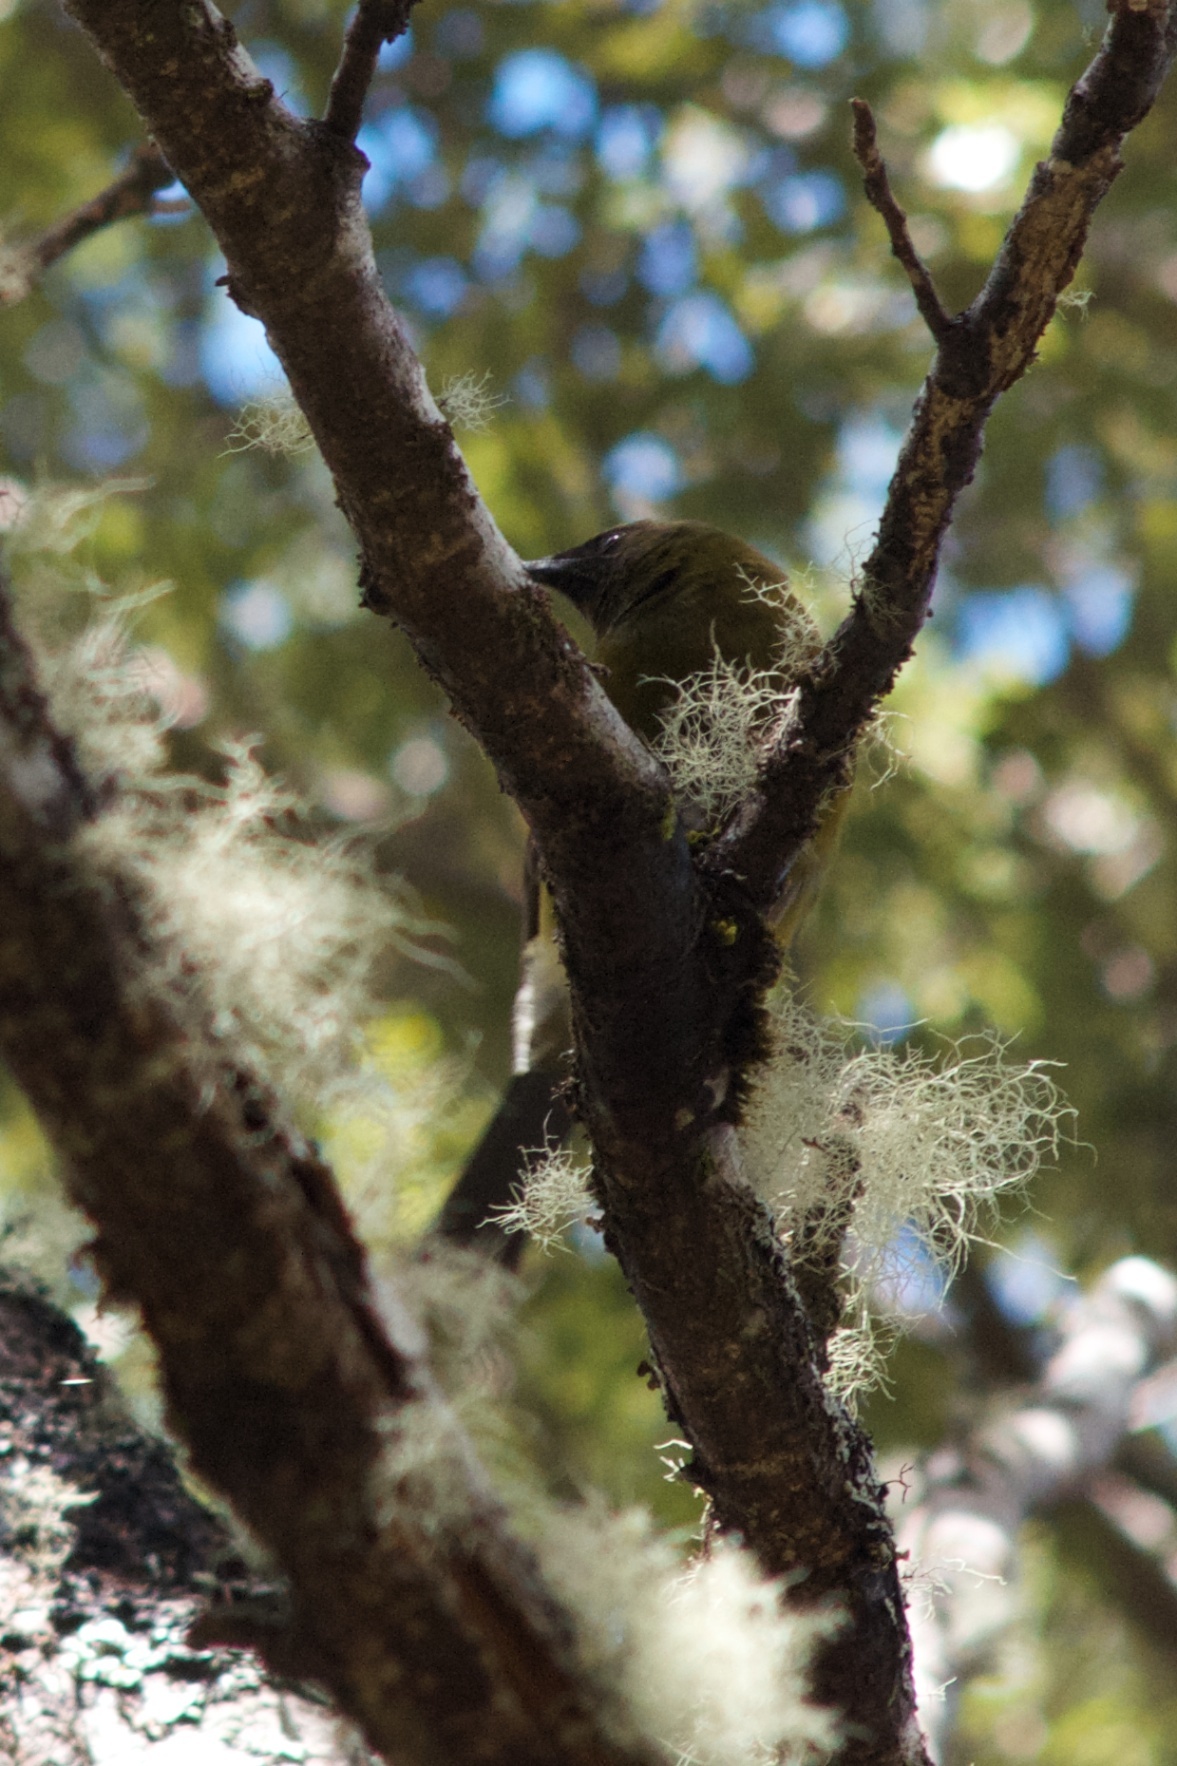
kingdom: Animalia
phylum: Chordata
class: Aves
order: Passeriformes
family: Meliphagidae
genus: Anthornis
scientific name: Anthornis melanura
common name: New zealand bellbird
